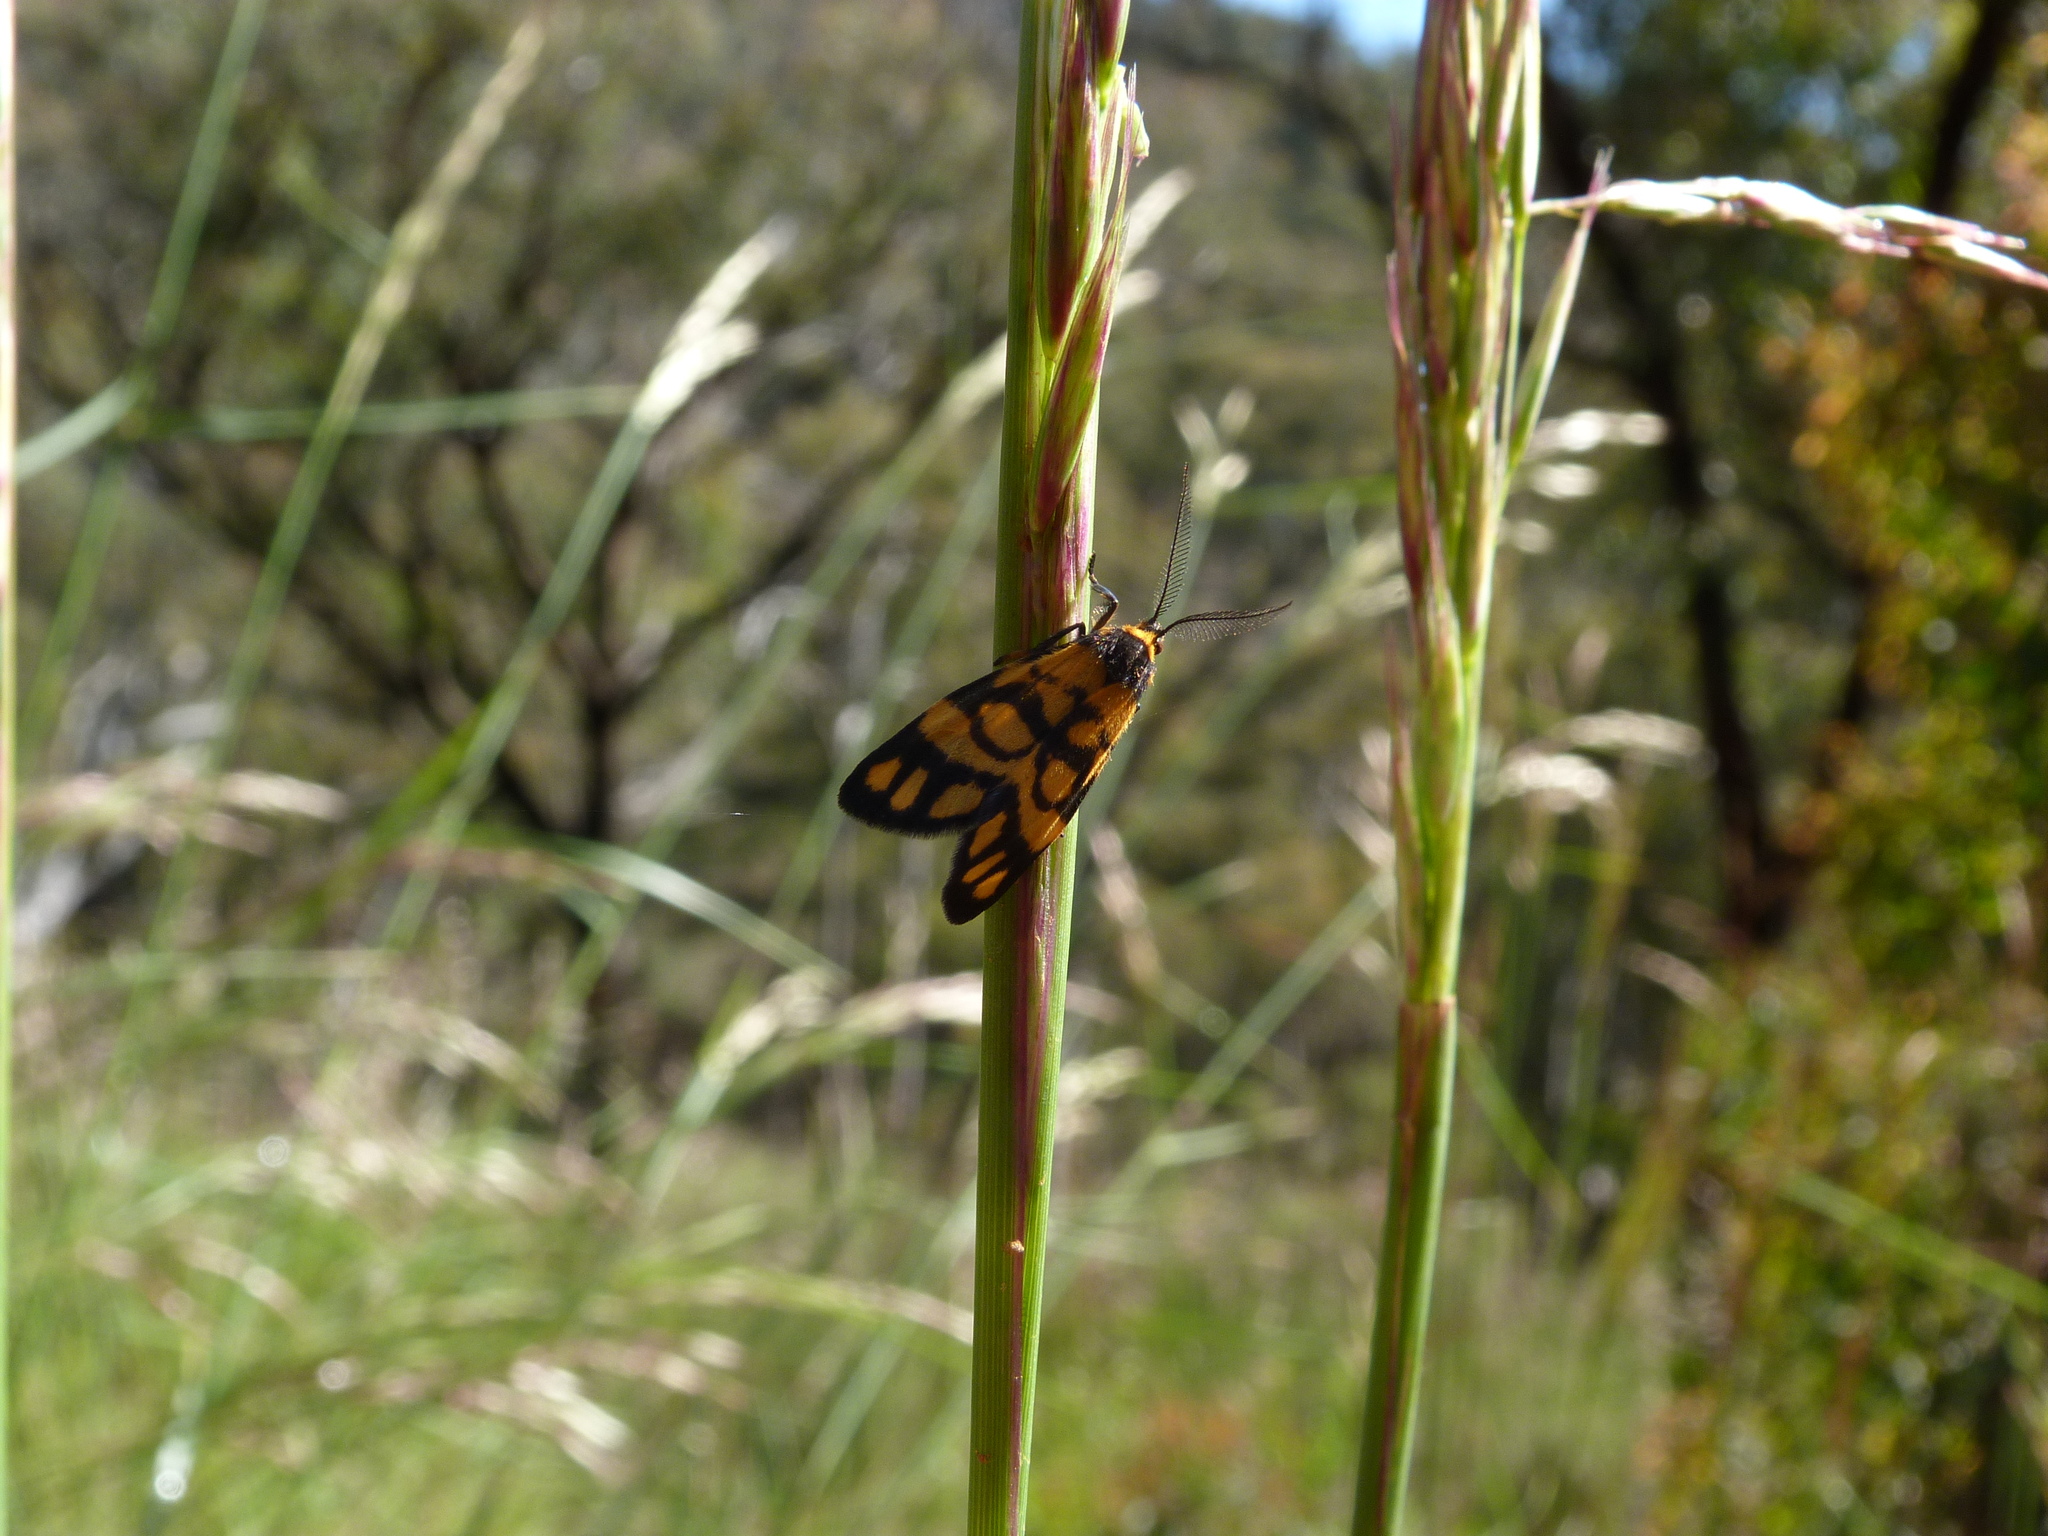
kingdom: Animalia
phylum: Arthropoda
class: Insecta
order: Lepidoptera
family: Erebidae
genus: Asura
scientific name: Asura lydia
